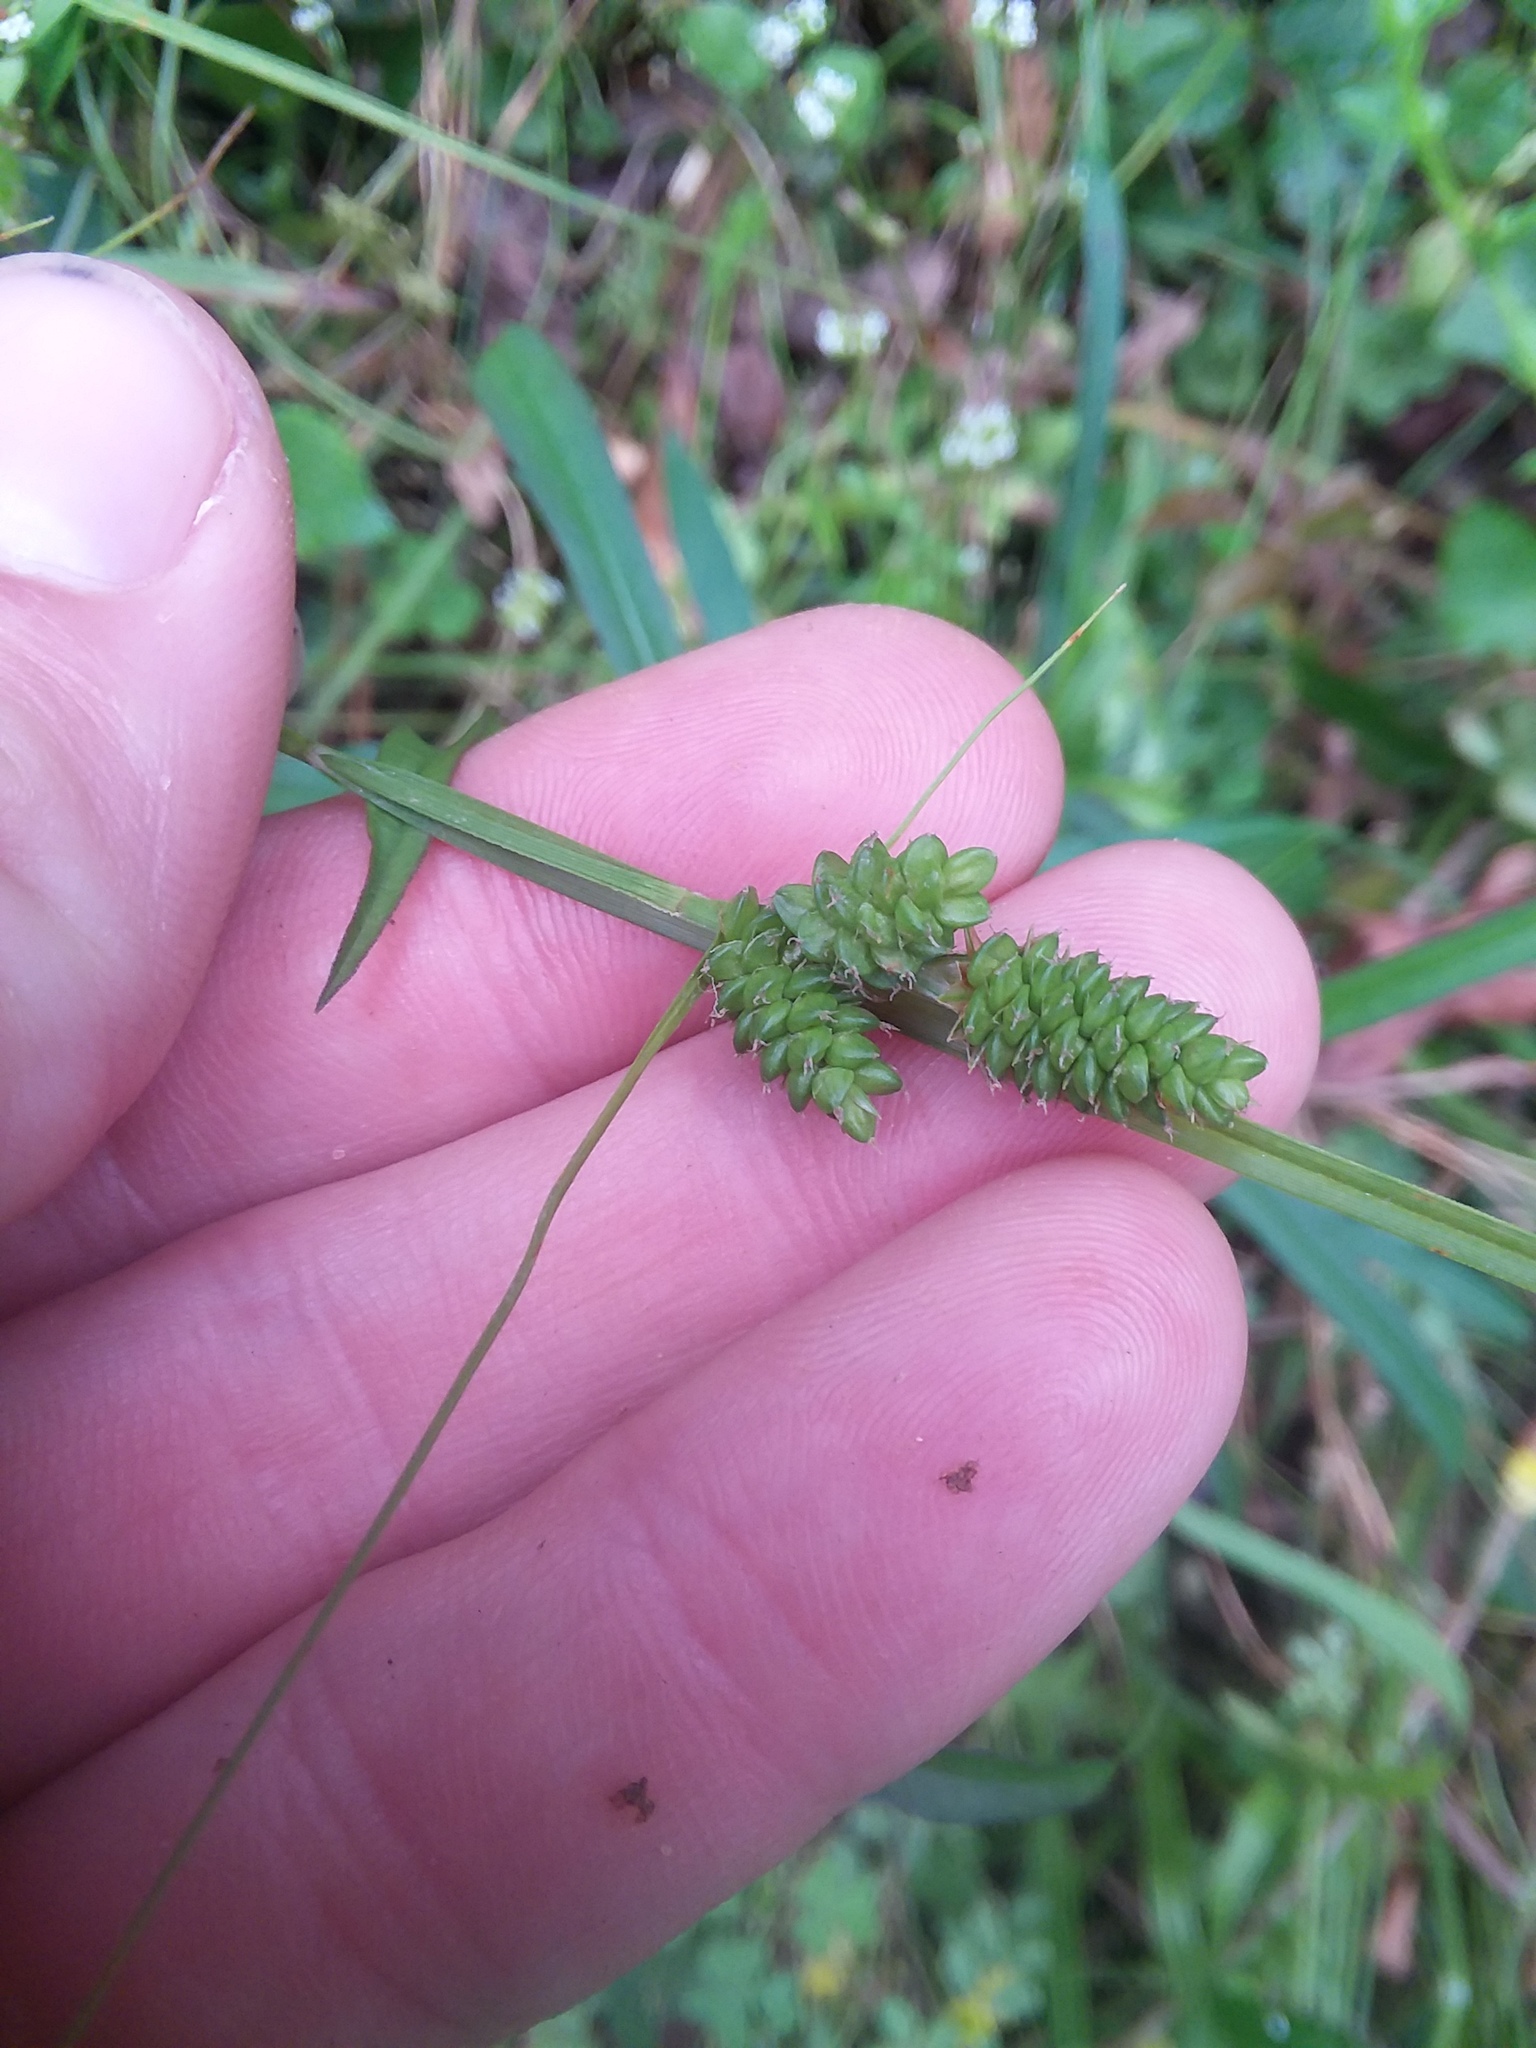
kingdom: Plantae
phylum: Tracheophyta
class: Liliopsida
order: Poales
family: Cyperaceae
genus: Carex
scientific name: Carex complanata
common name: Hirsute sedge
